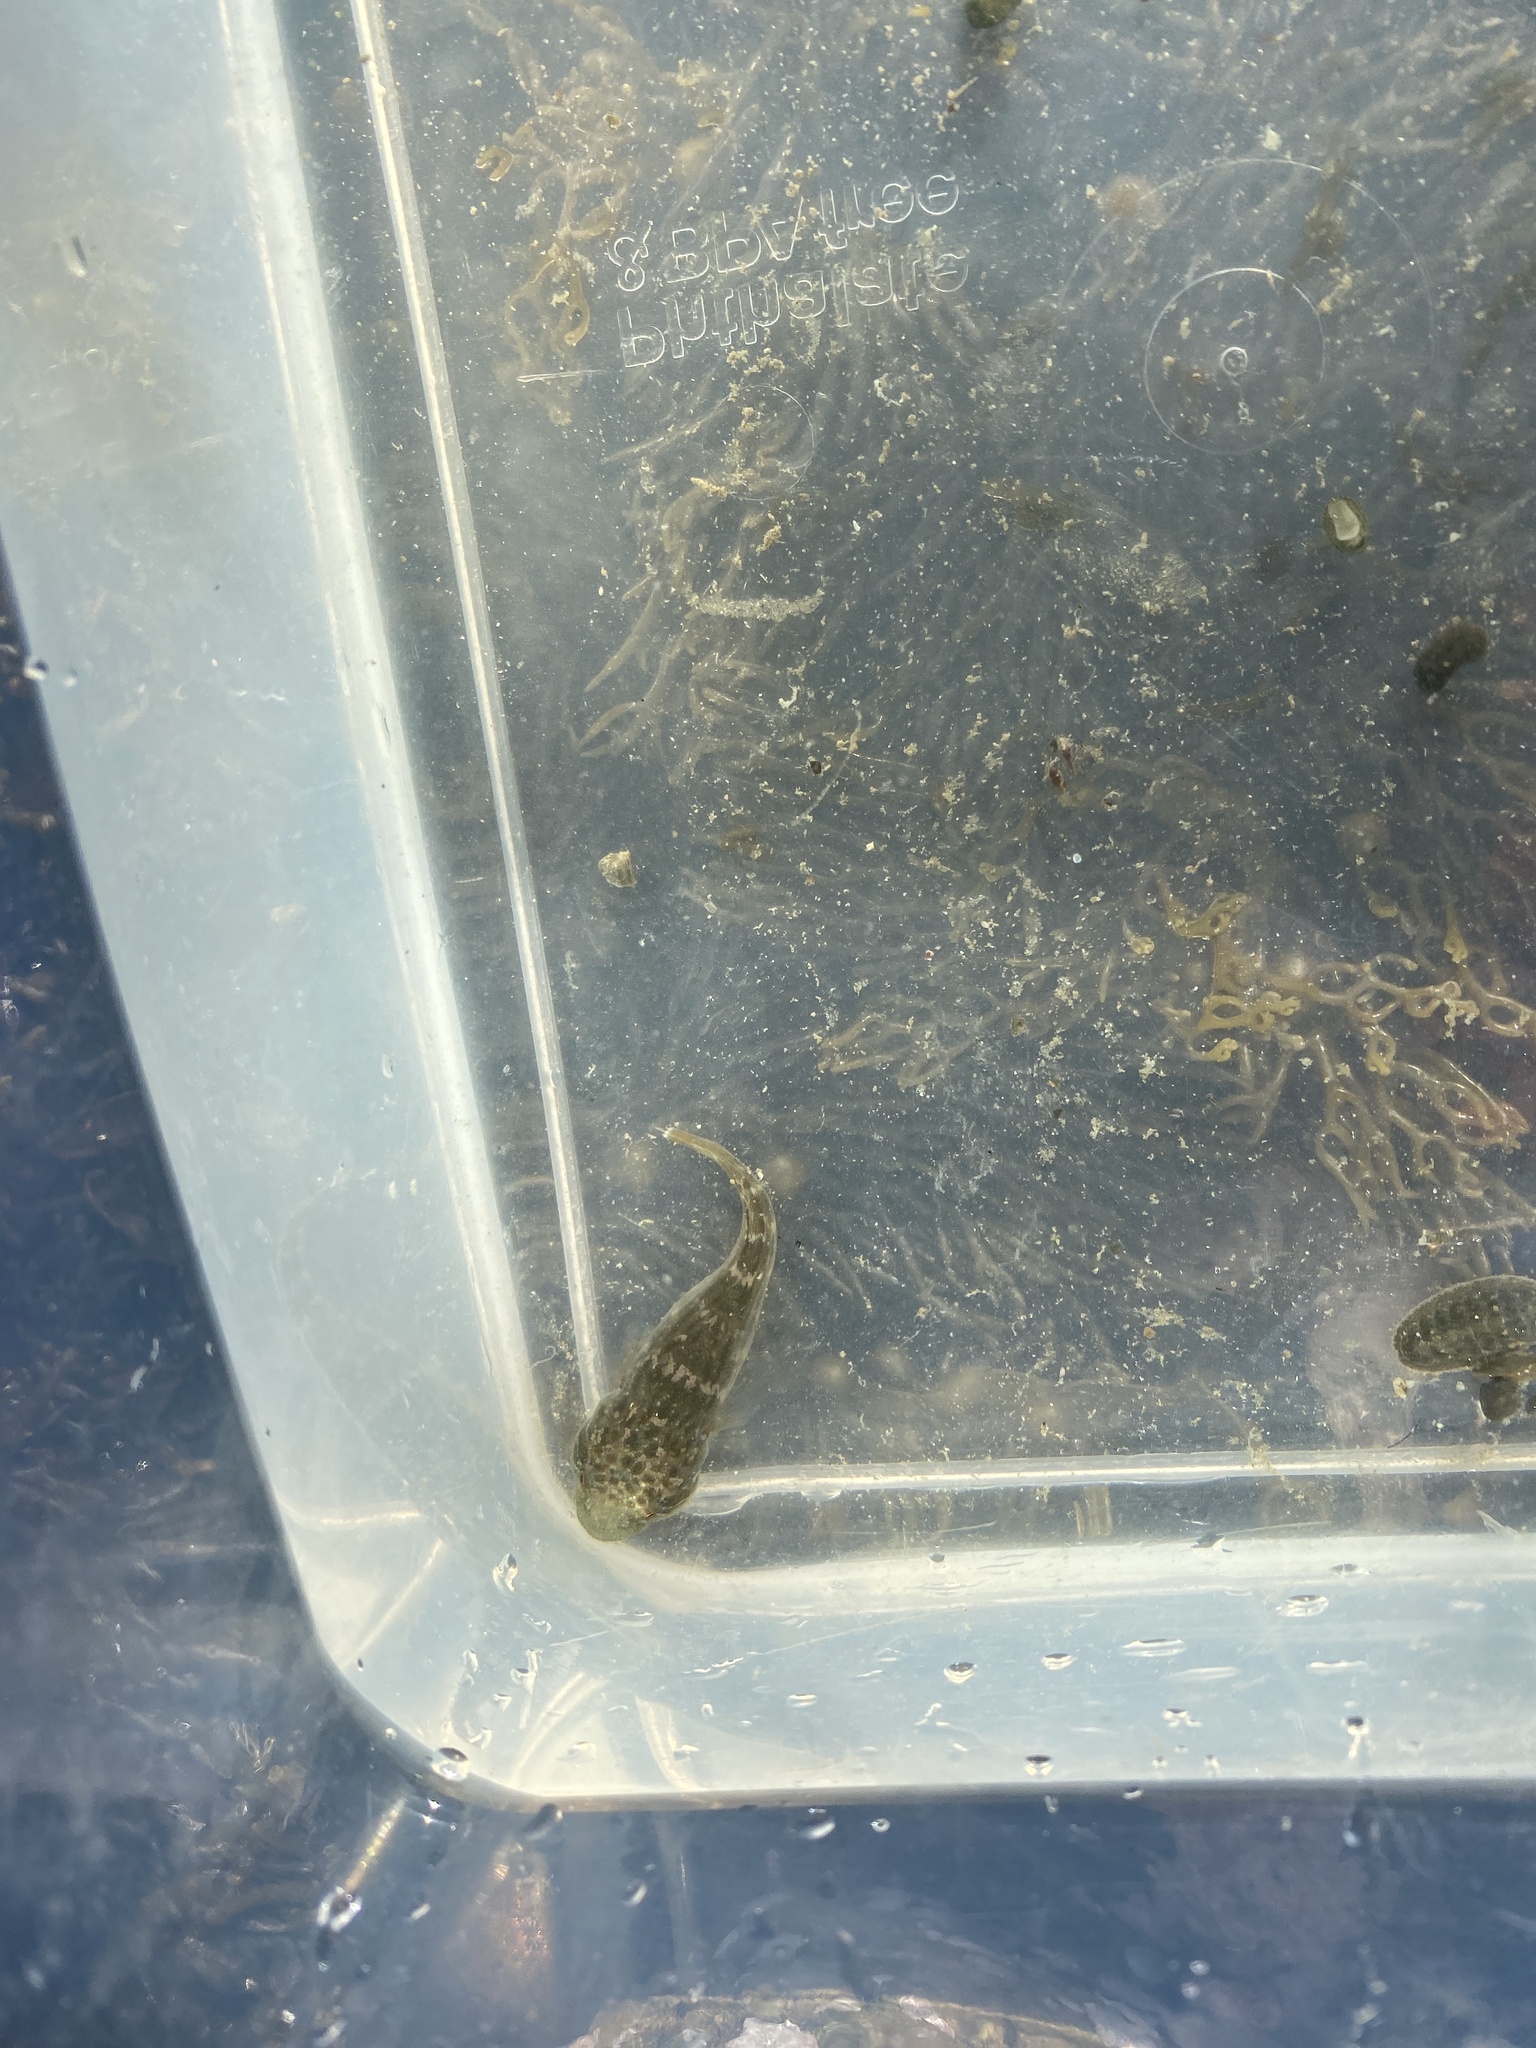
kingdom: Animalia
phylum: Chordata
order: Gobiesociformes
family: Gobiesocidae
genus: Trachelochismus
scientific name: Trachelochismus pinnulatus
